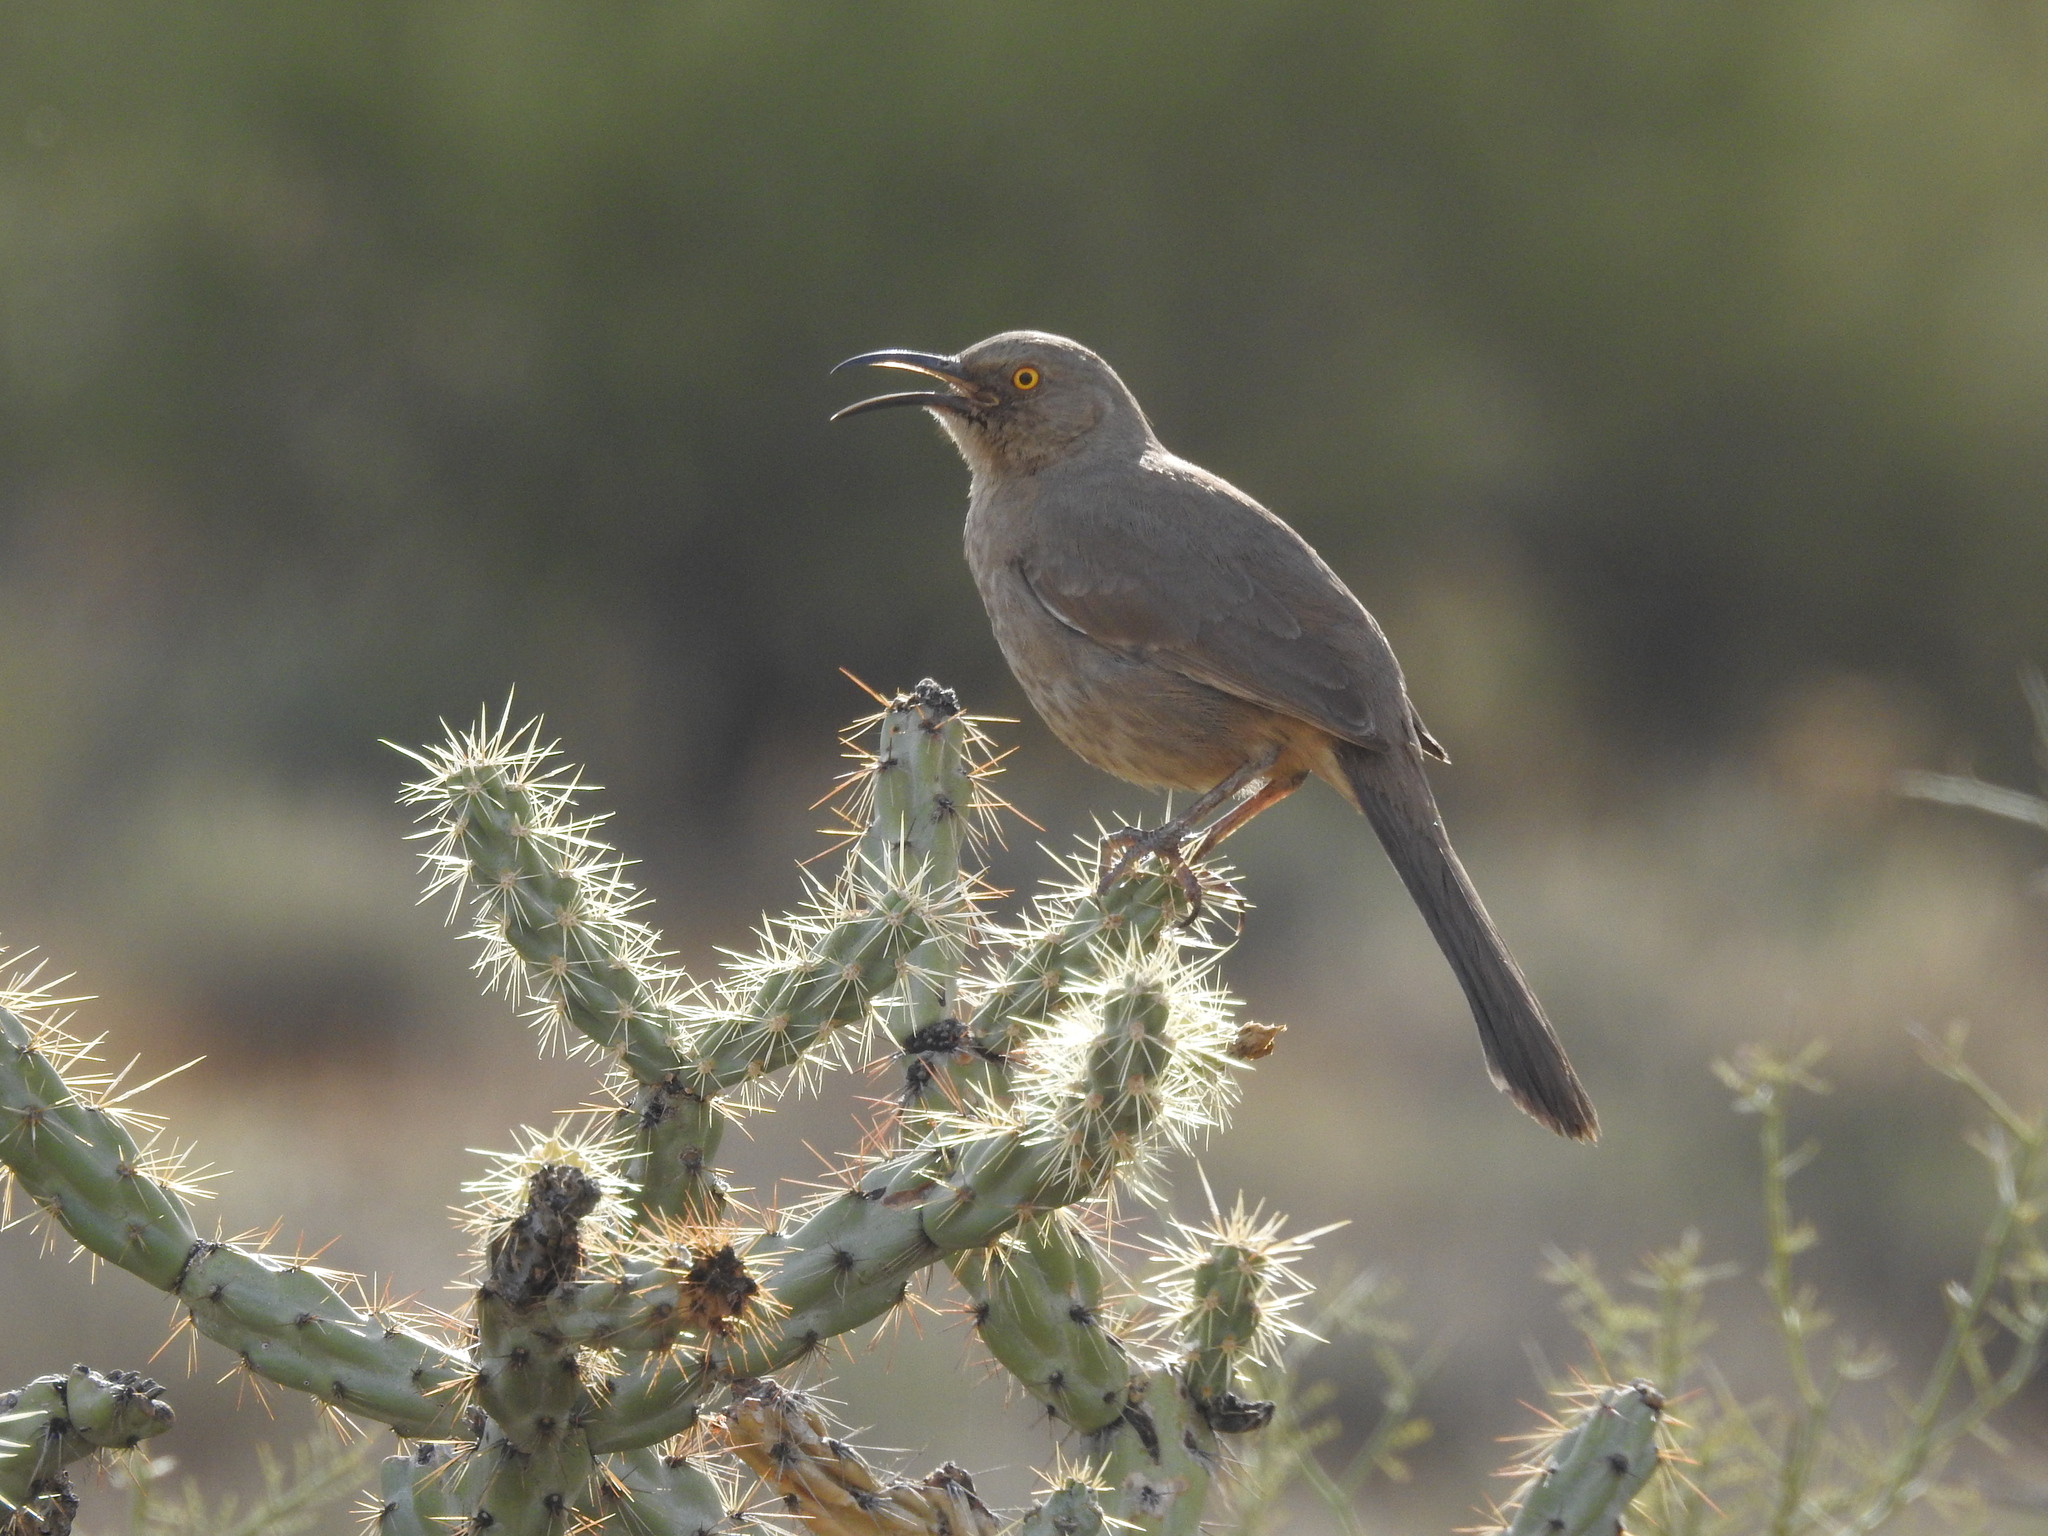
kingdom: Animalia
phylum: Chordata
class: Aves
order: Passeriformes
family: Mimidae
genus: Toxostoma
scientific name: Toxostoma curvirostre
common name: Curve-billed thrasher
